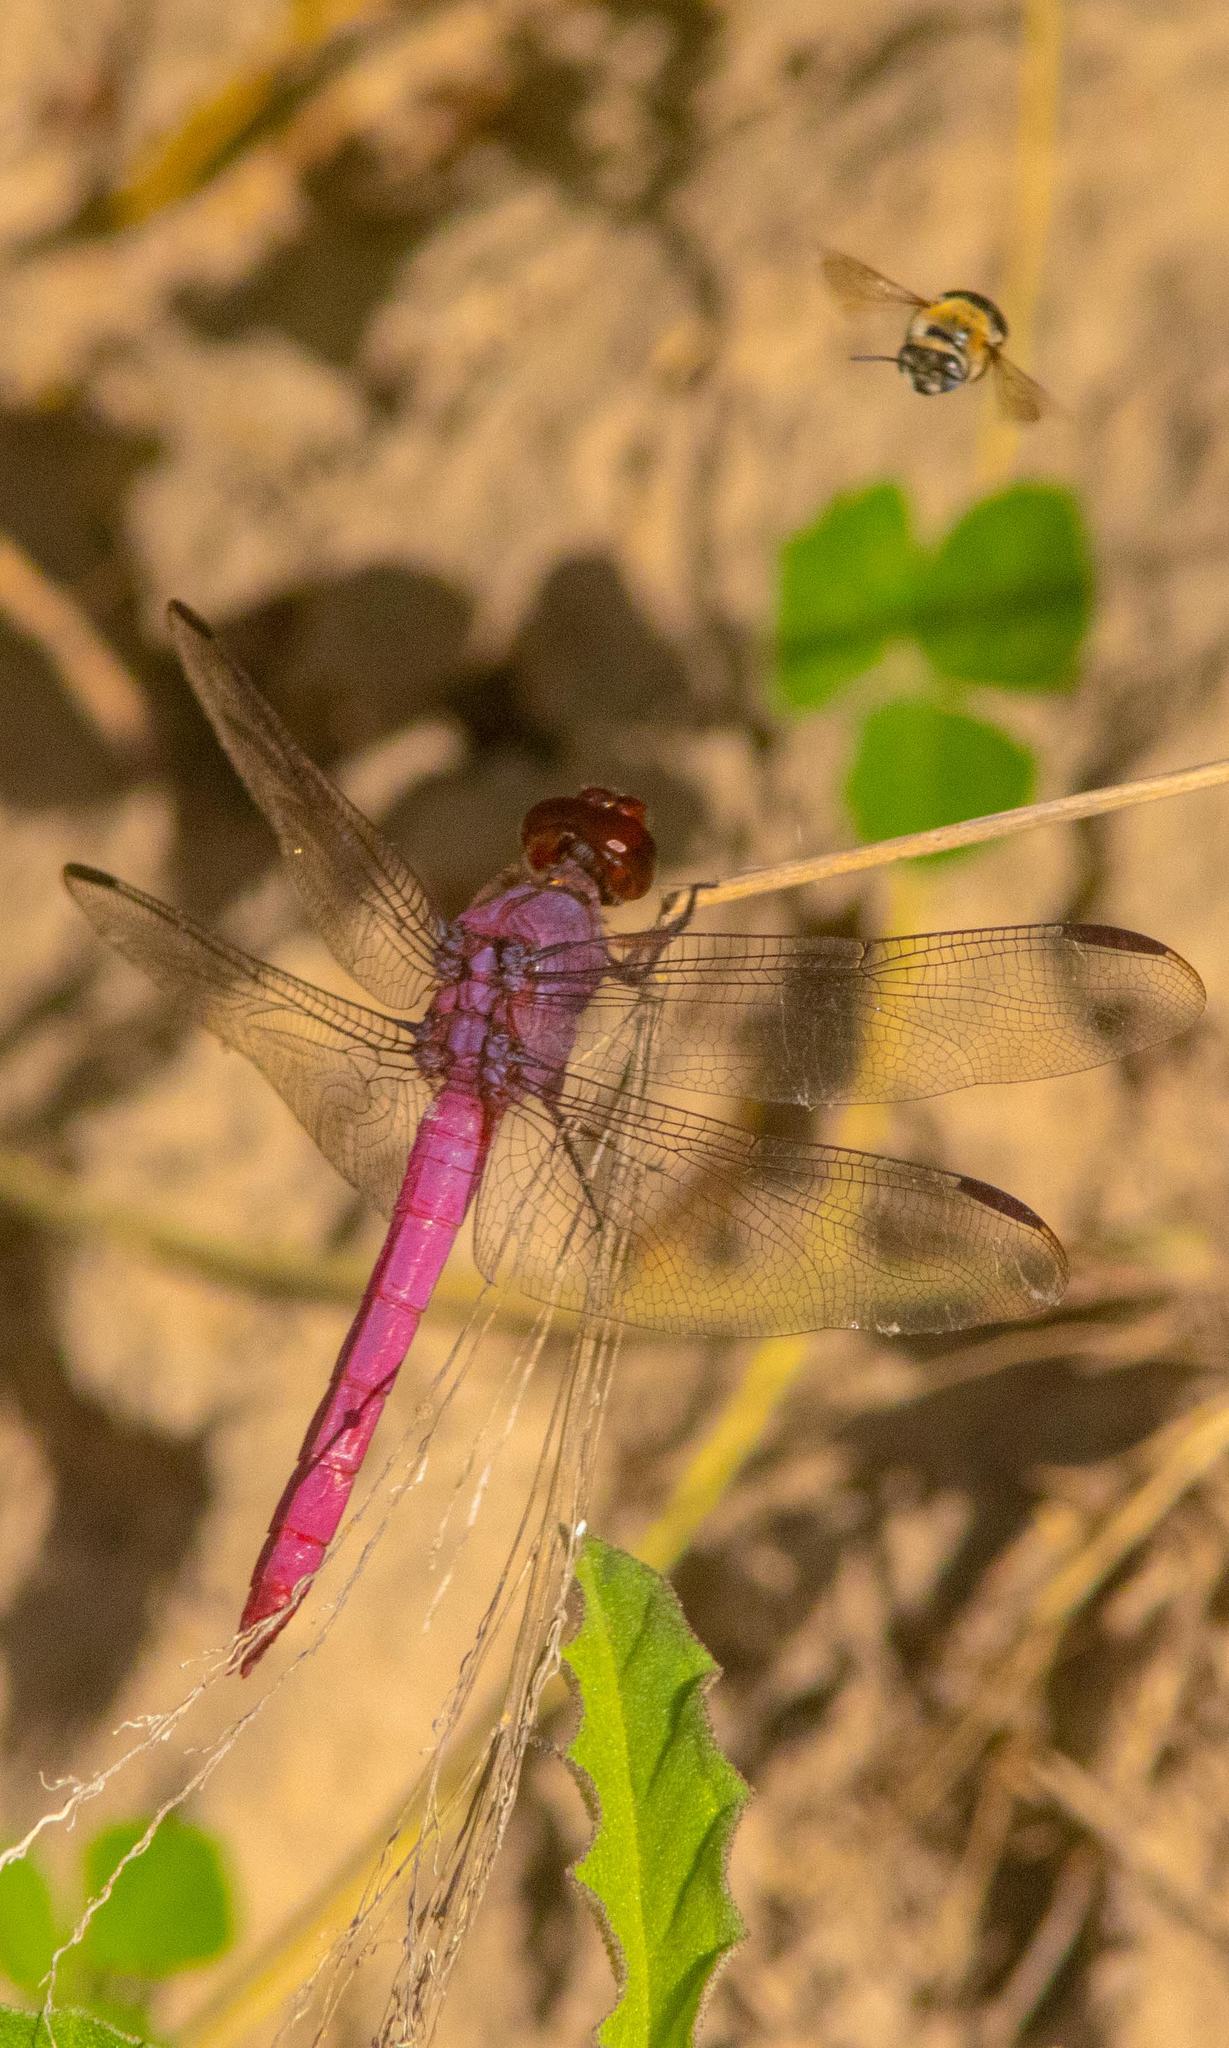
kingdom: Animalia
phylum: Arthropoda
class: Insecta
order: Odonata
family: Libellulidae
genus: Orthemis
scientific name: Orthemis ferruginea
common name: Roseate skimmer
